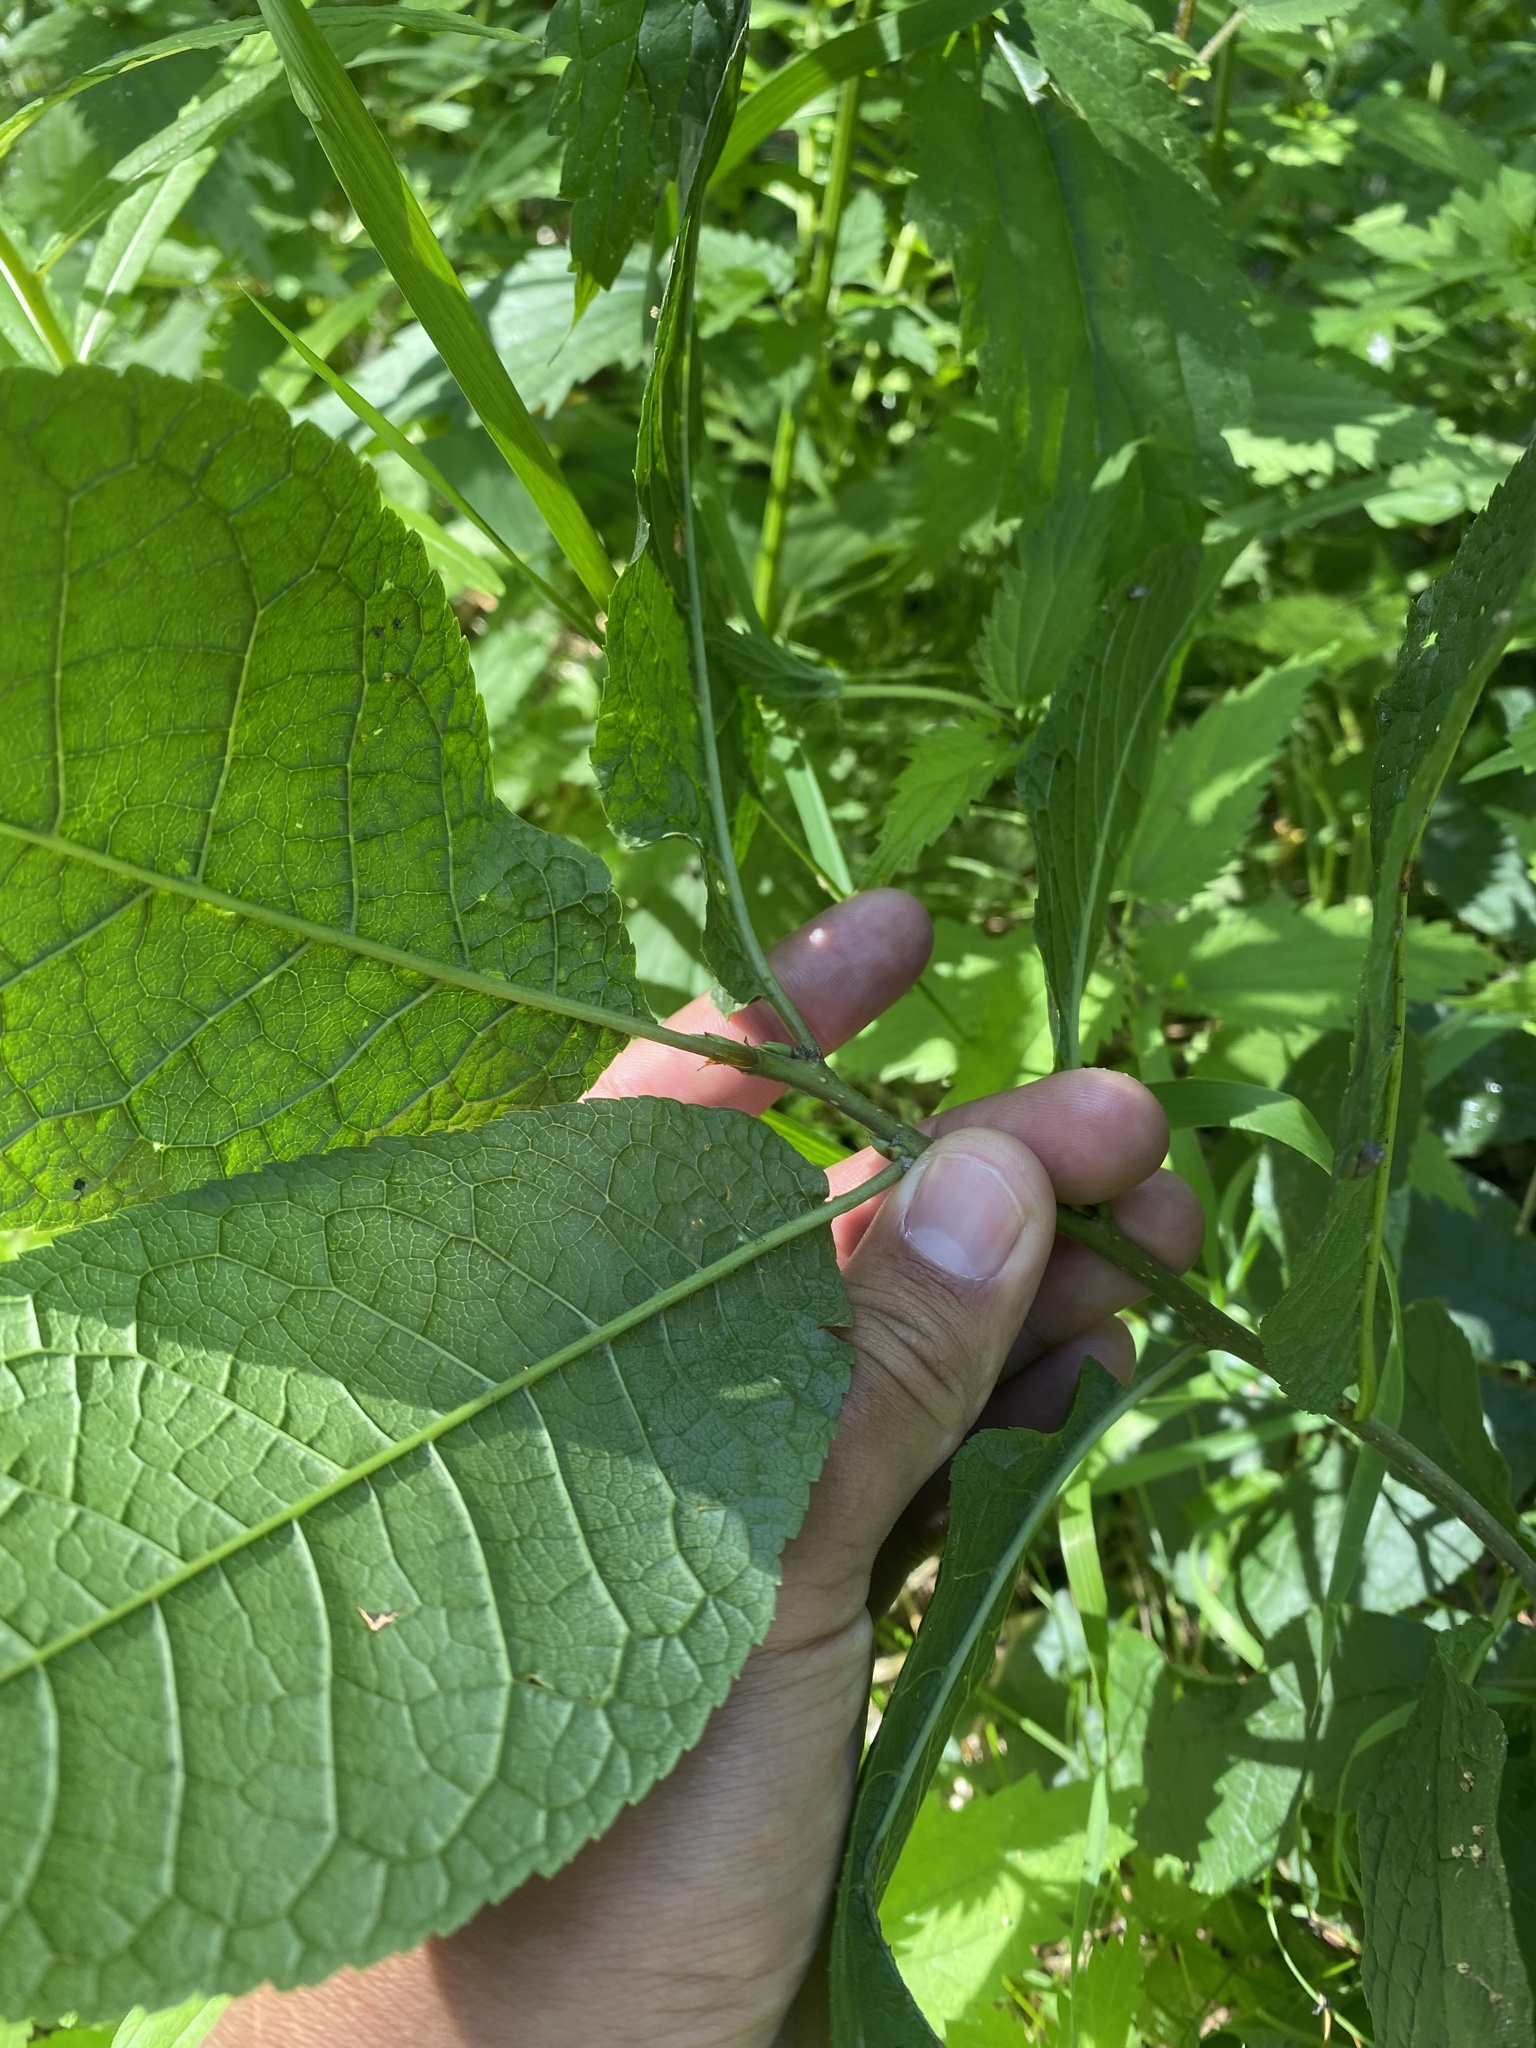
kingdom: Plantae
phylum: Tracheophyta
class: Magnoliopsida
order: Rosales
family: Rosaceae
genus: Prunus
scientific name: Prunus padus
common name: Bird cherry
